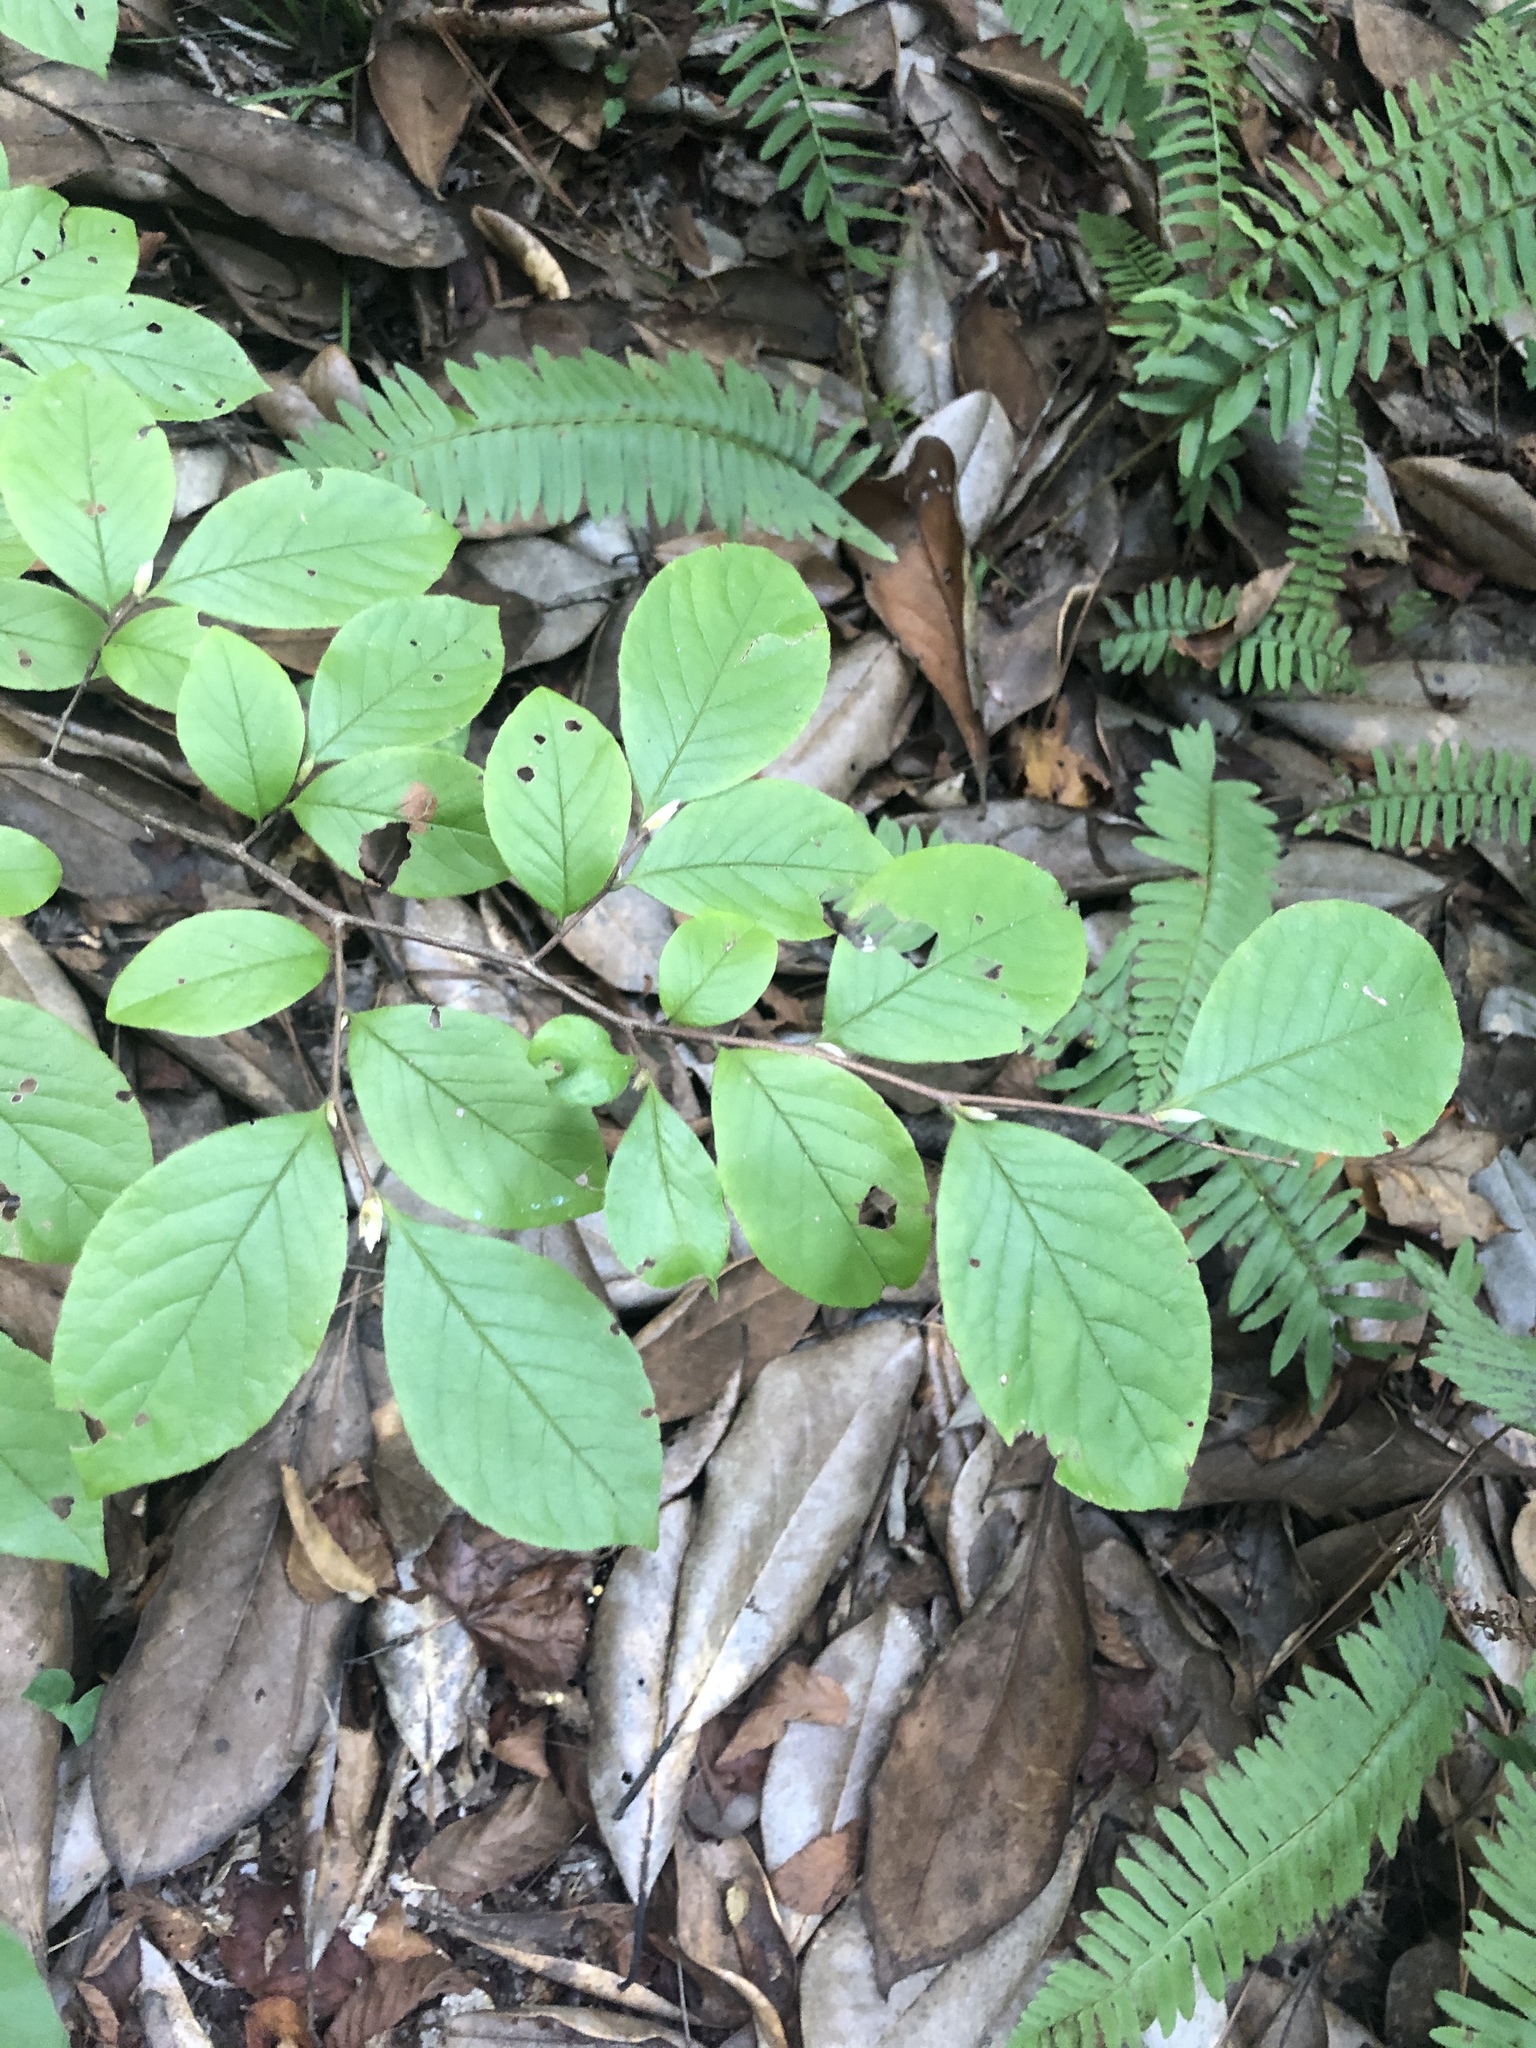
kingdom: Plantae
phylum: Tracheophyta
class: Magnoliopsida
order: Ericales
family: Theaceae
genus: Stewartia
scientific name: Stewartia malacodendron
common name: Virginia stewartia
